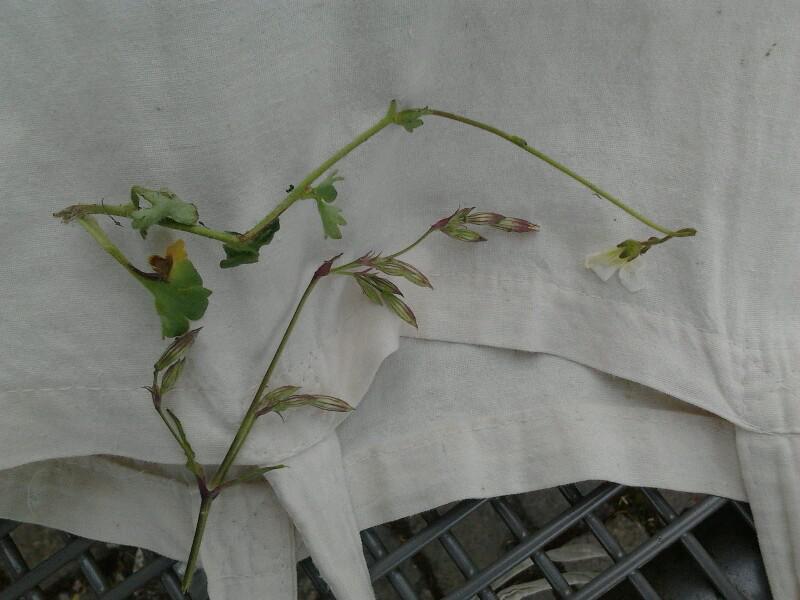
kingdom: Plantae
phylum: Tracheophyta
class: Magnoliopsida
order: Saxifragales
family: Saxifragaceae
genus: Saxifraga
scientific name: Saxifraga granulata
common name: Meadow saxifrage
